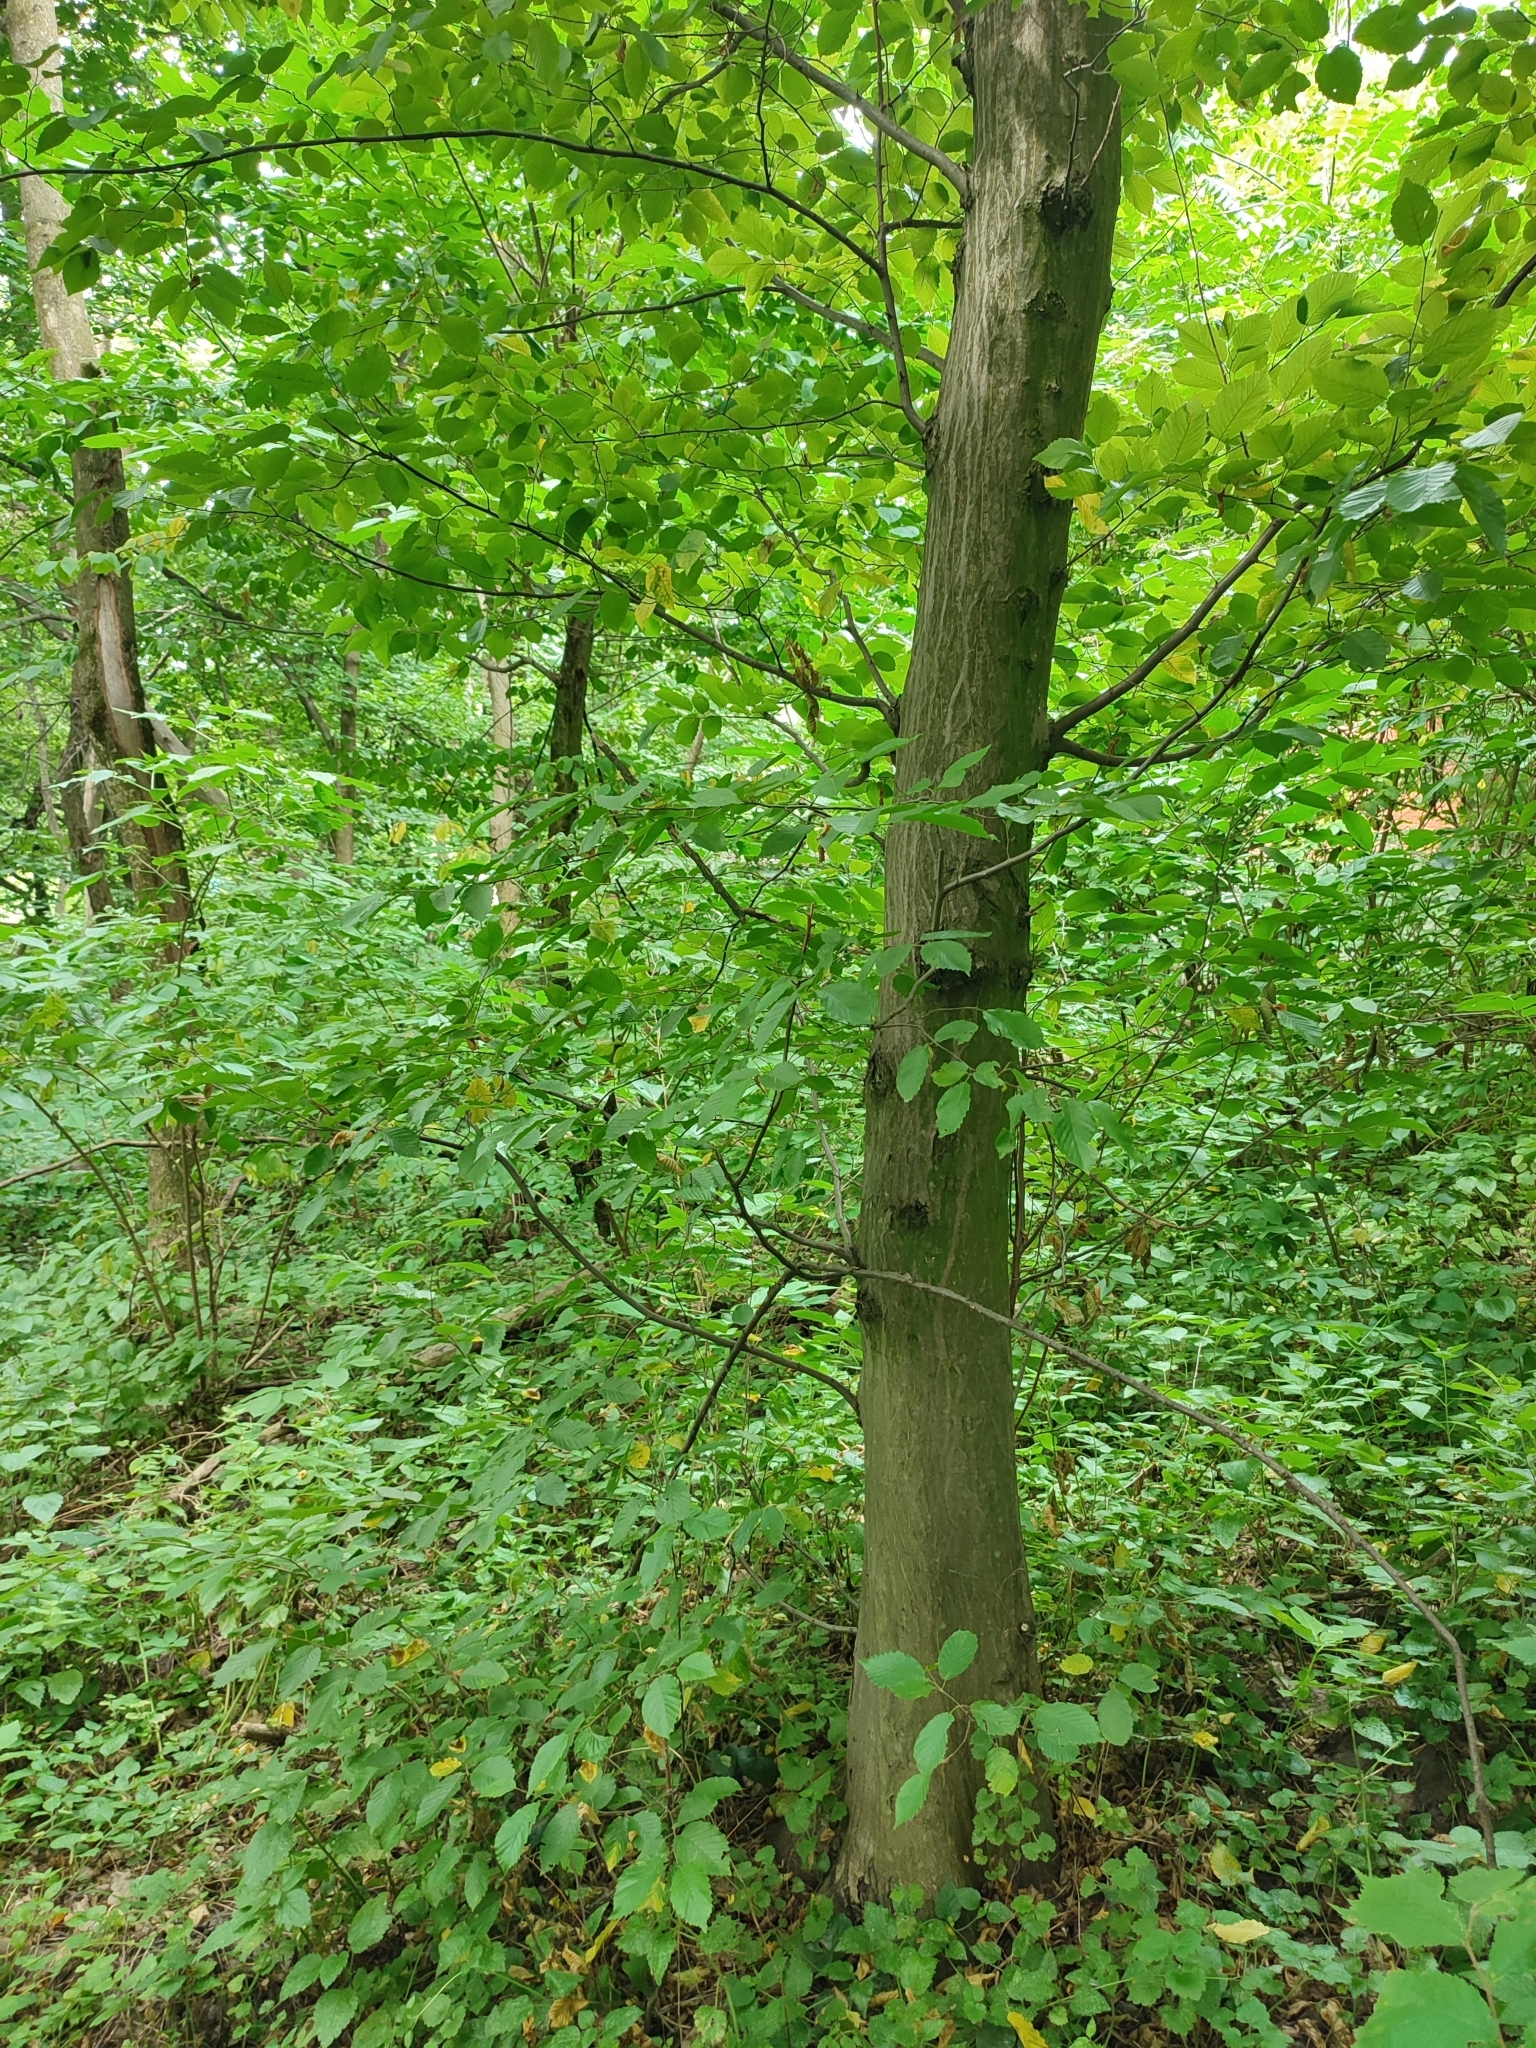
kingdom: Plantae
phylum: Tracheophyta
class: Magnoliopsida
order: Fagales
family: Betulaceae
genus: Carpinus
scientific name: Carpinus betulus
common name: Hornbeam
